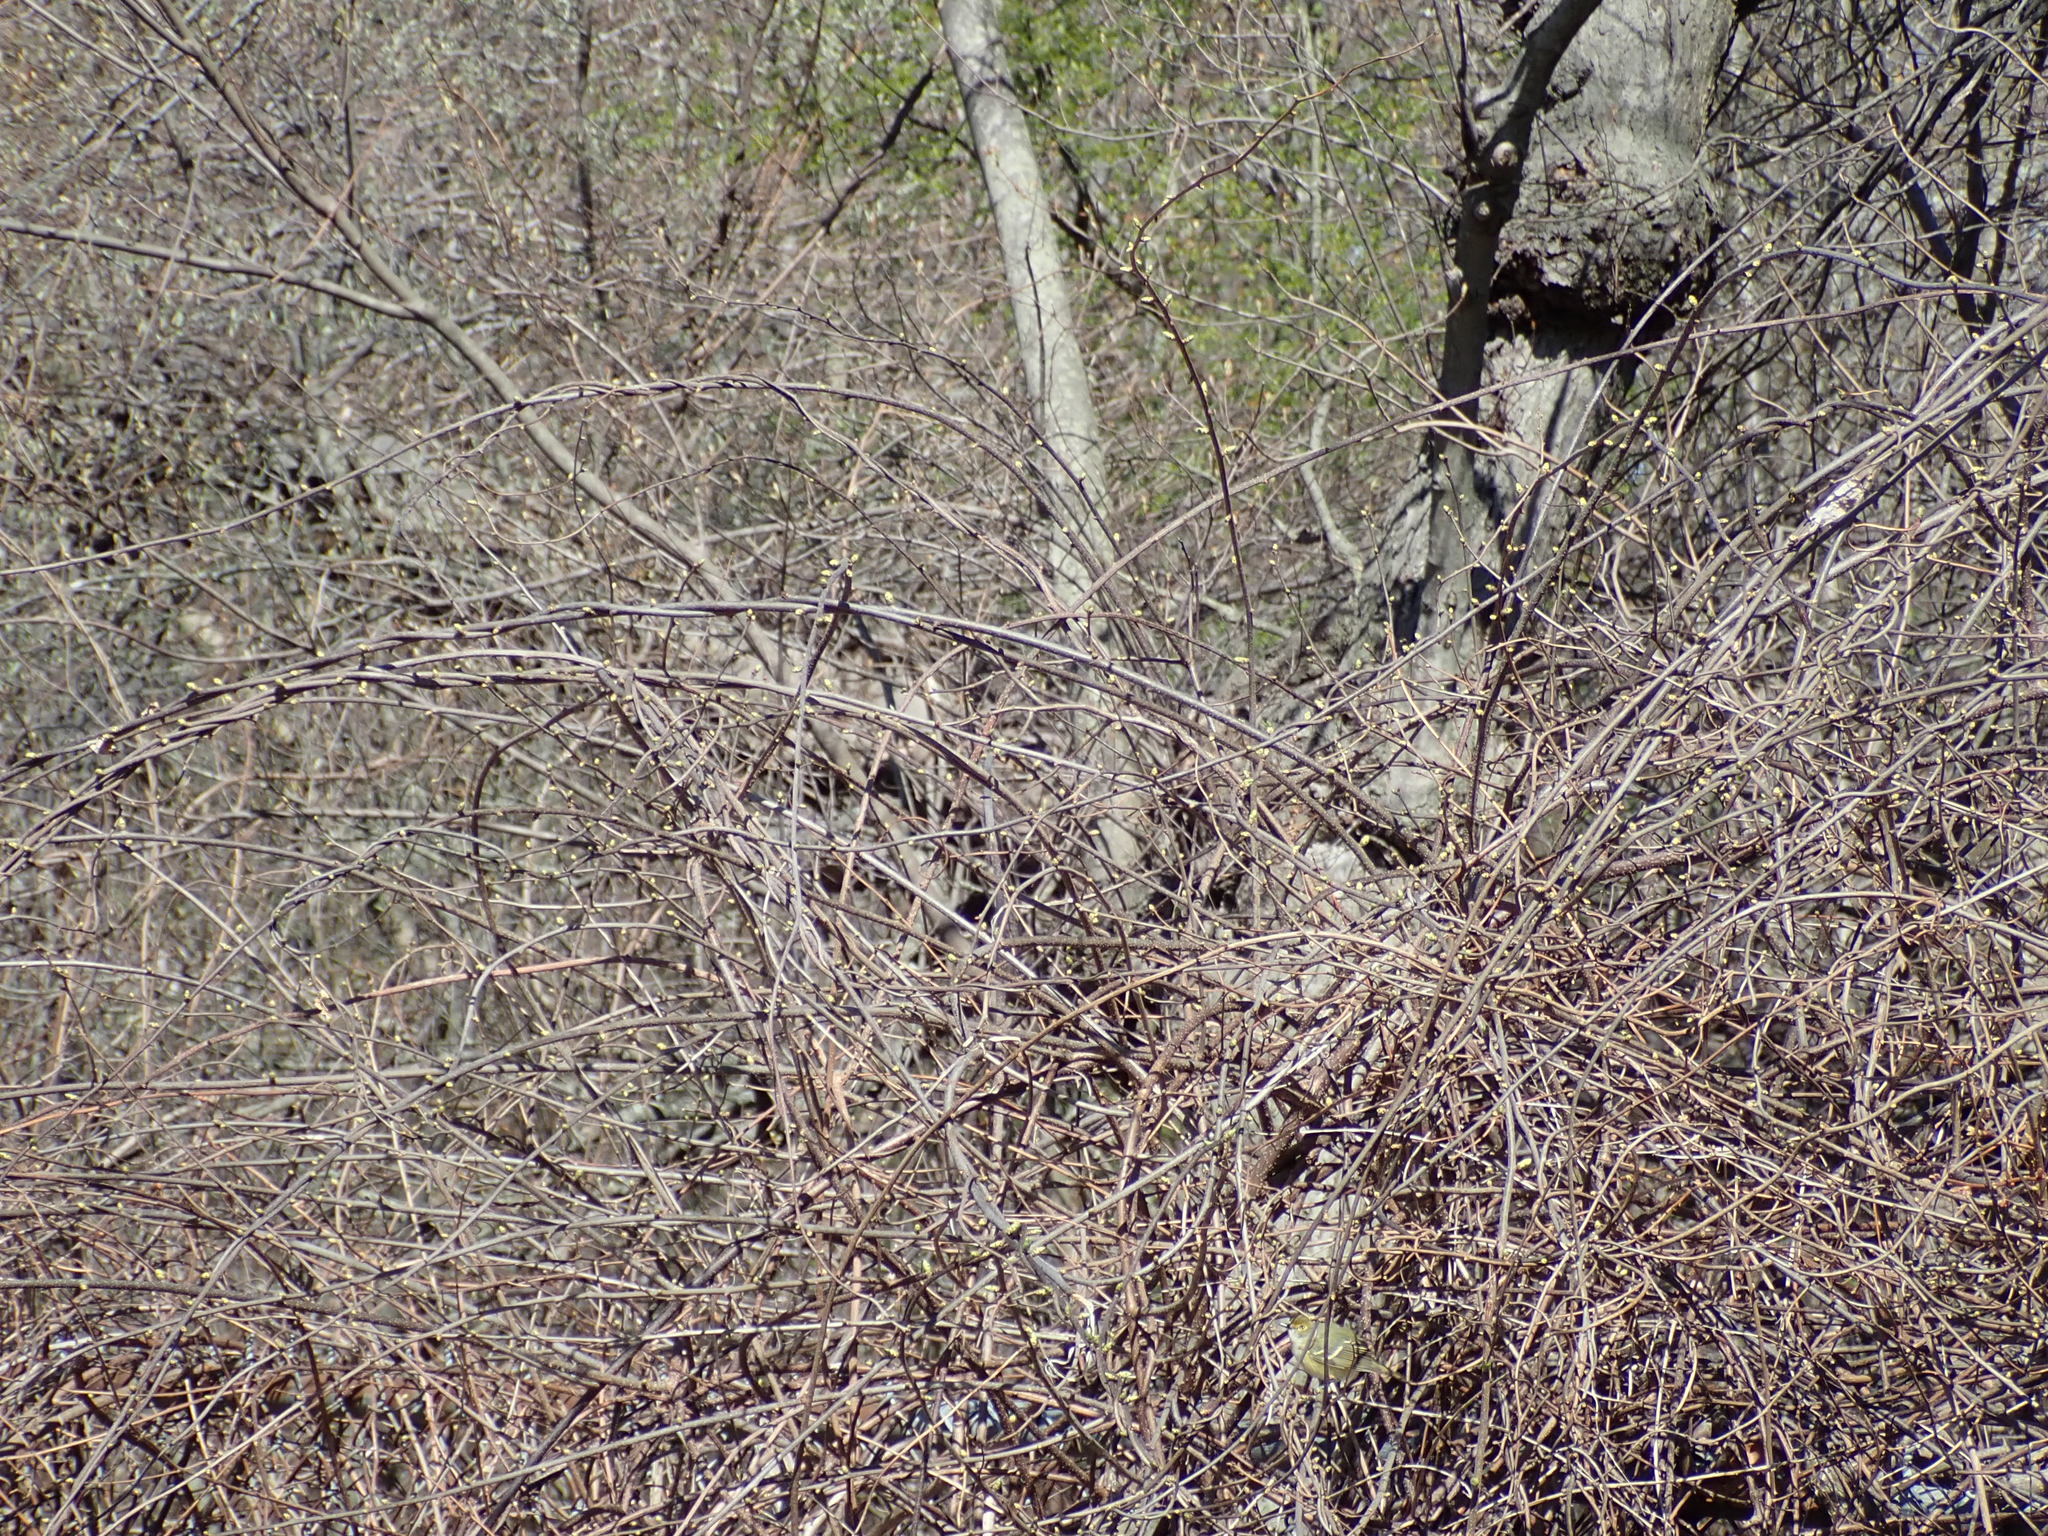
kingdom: Animalia
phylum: Chordata
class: Aves
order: Passeriformes
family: Vireonidae
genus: Vireo
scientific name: Vireo griseus
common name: White-eyed vireo
